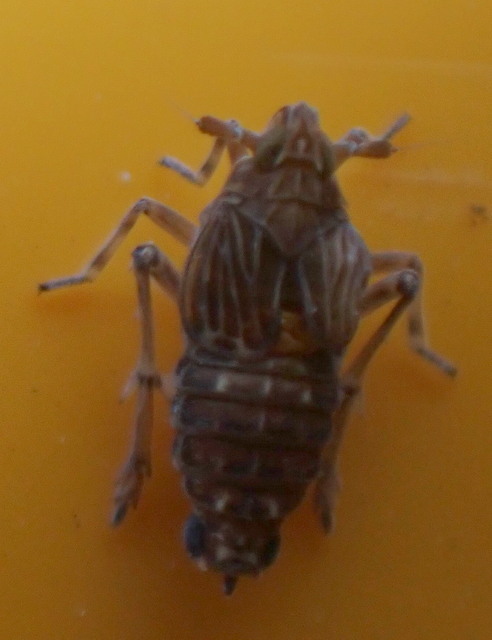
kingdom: Animalia
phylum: Arthropoda
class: Insecta
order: Hemiptera
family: Delphacidae
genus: Megamelus
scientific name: Megamelus davisi
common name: Planthopper
